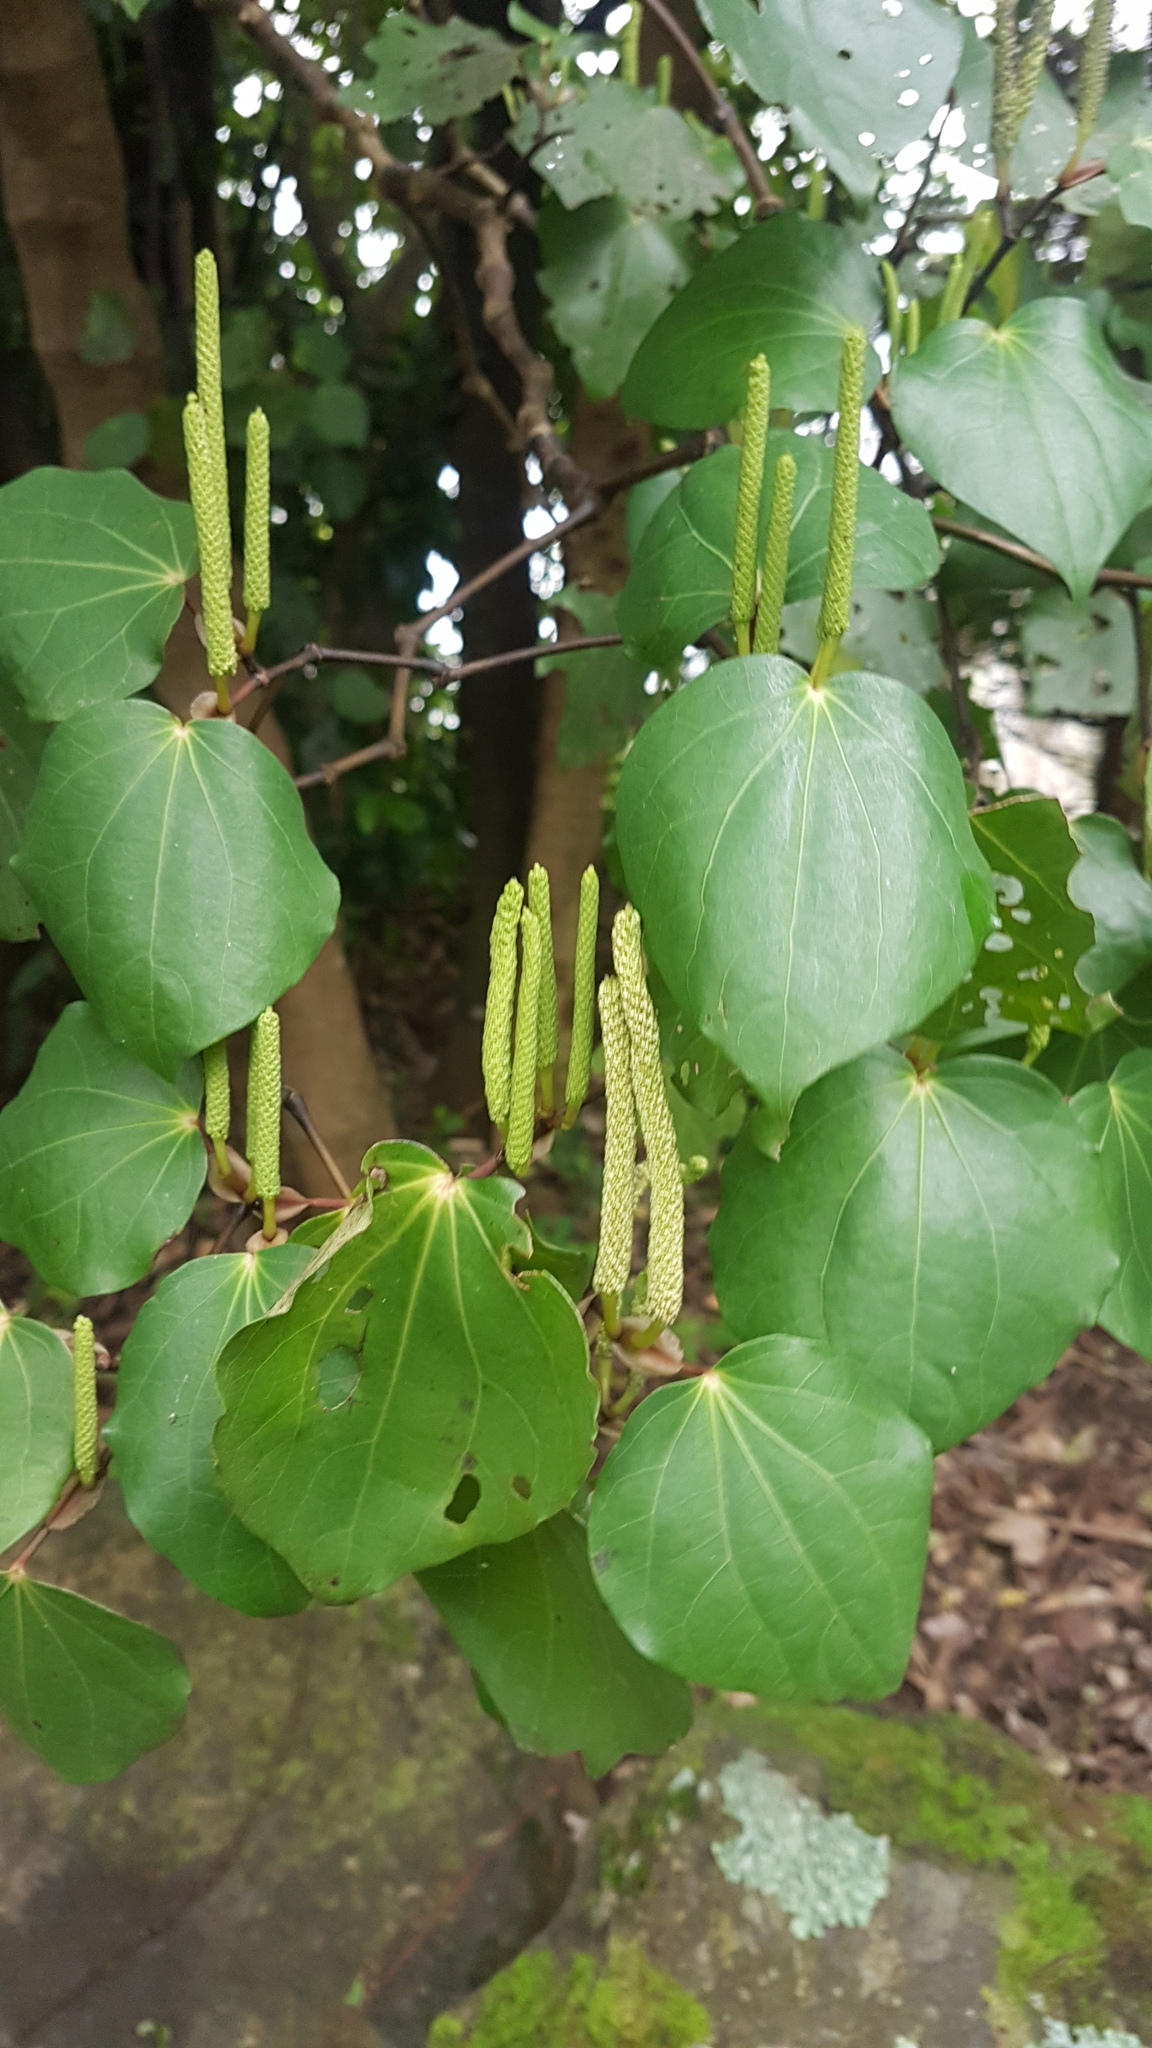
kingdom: Plantae
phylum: Tracheophyta
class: Magnoliopsida
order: Piperales
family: Piperaceae
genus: Macropiper
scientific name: Macropiper excelsum
